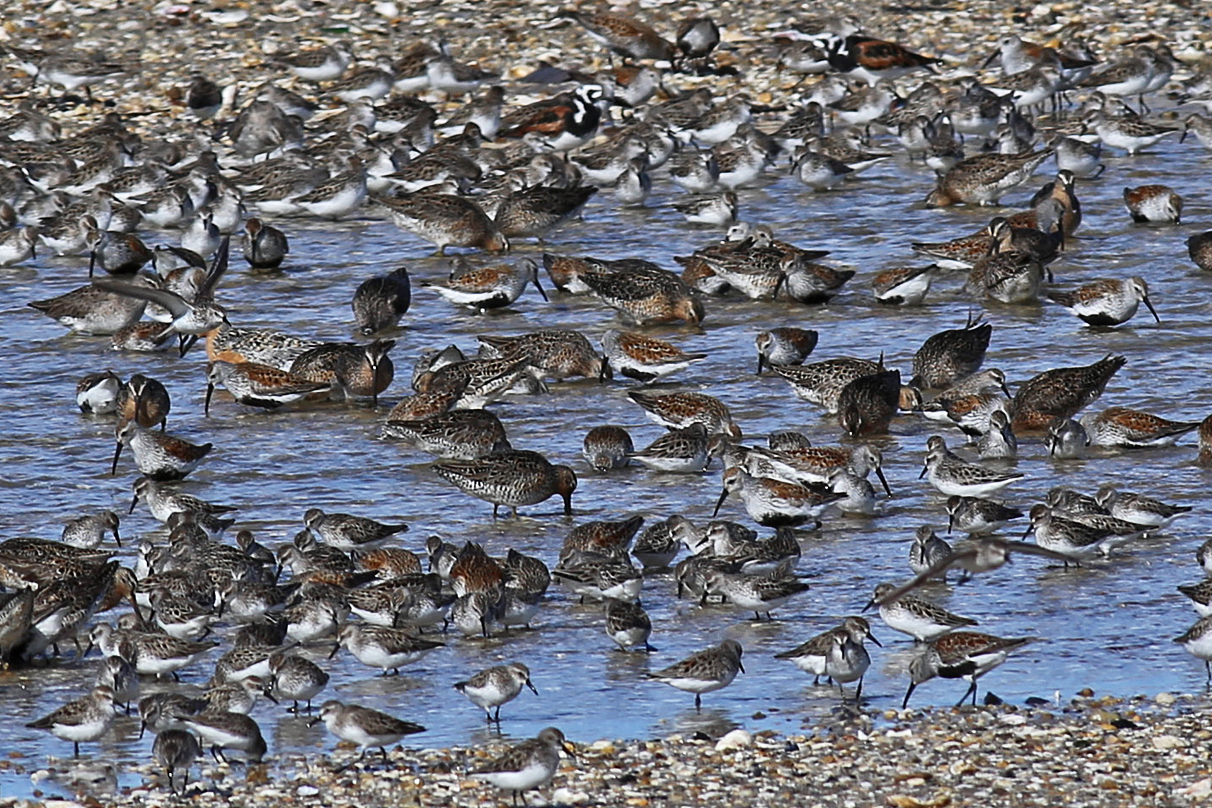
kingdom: Animalia
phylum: Chordata
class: Aves
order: Charadriiformes
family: Scolopacidae
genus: Calidris
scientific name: Calidris alpina
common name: Dunlin
